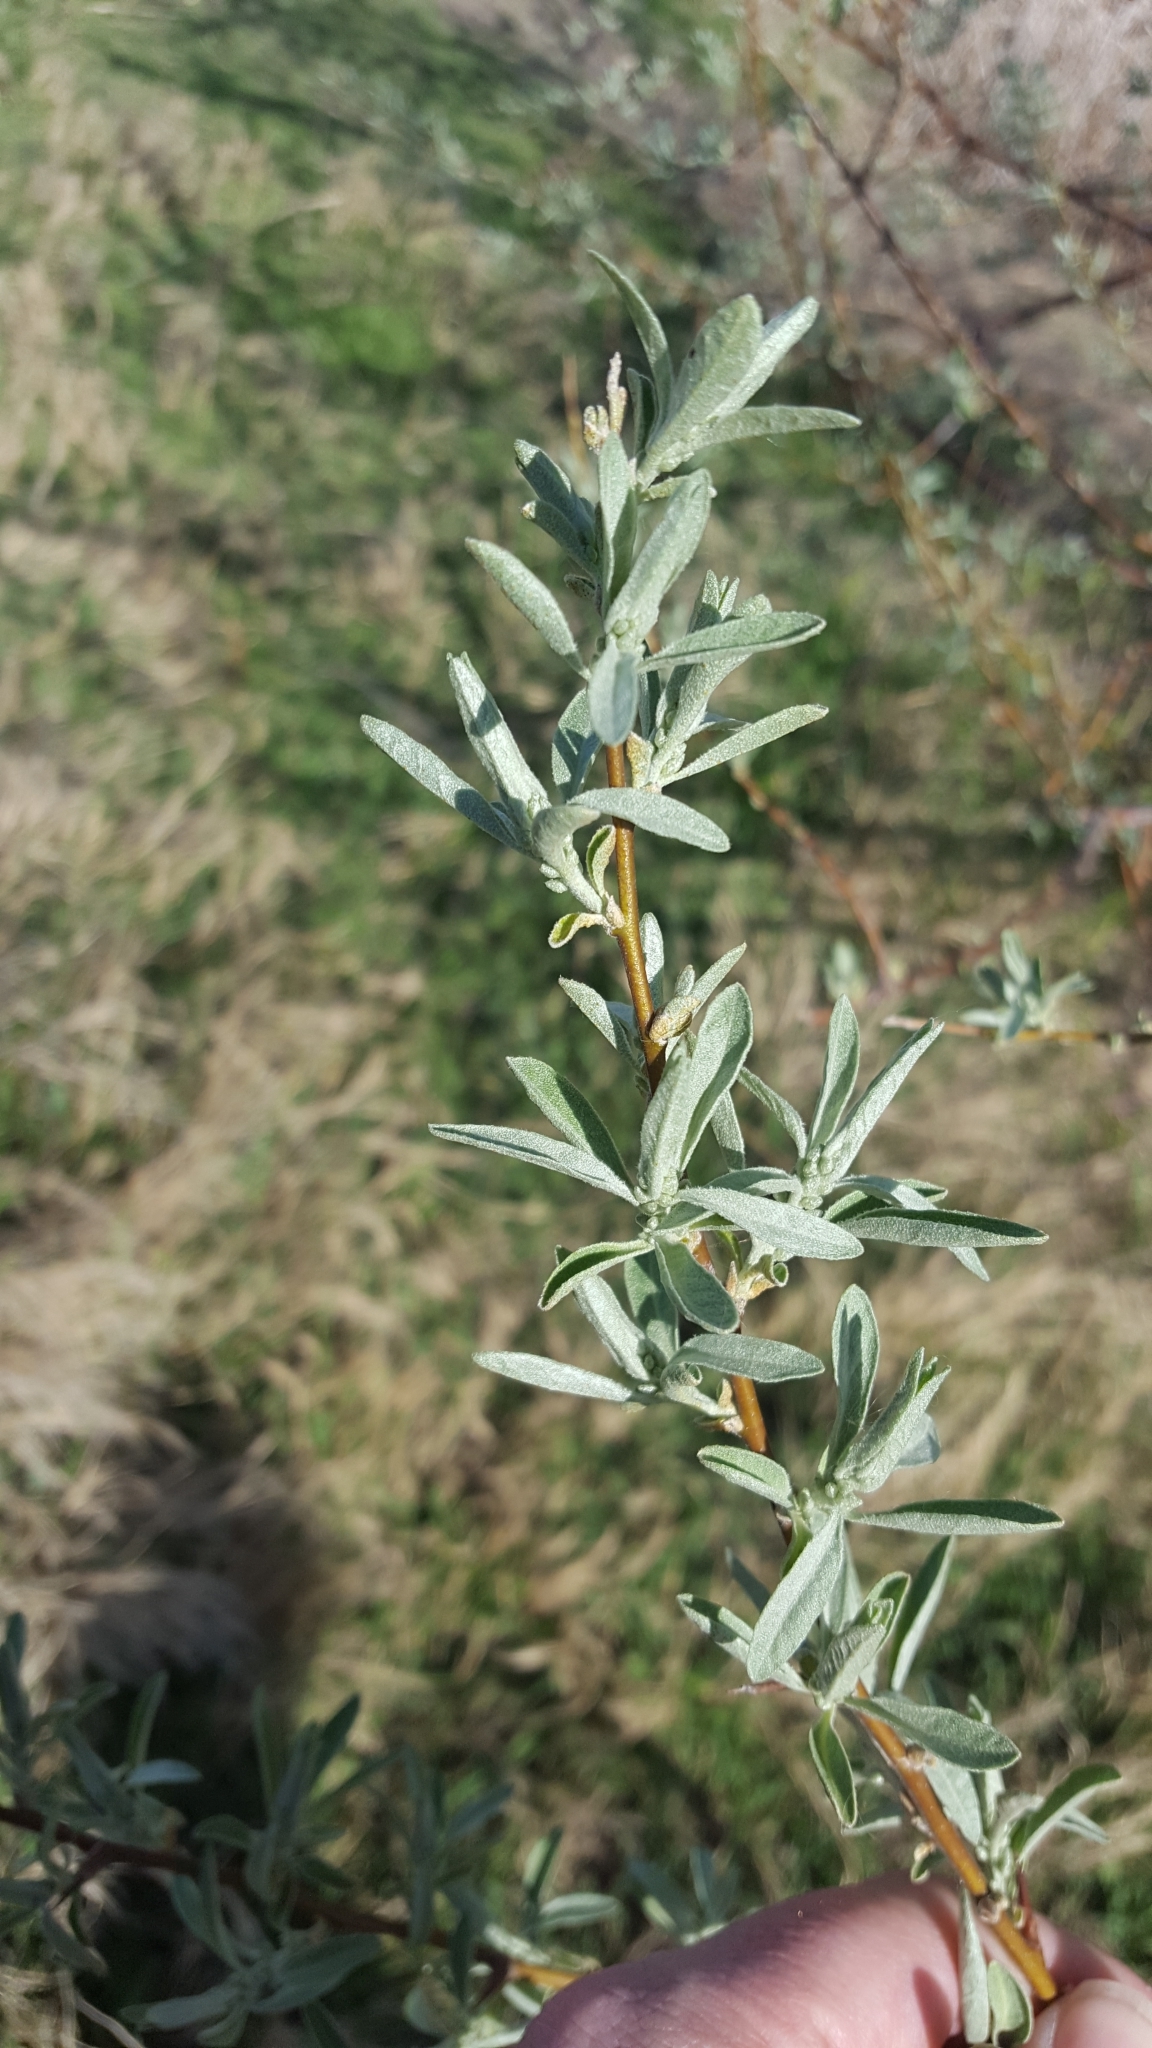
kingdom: Plantae
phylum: Tracheophyta
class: Magnoliopsida
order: Rosales
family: Elaeagnaceae
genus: Elaeagnus
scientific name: Elaeagnus angustifolia
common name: Russian olive
